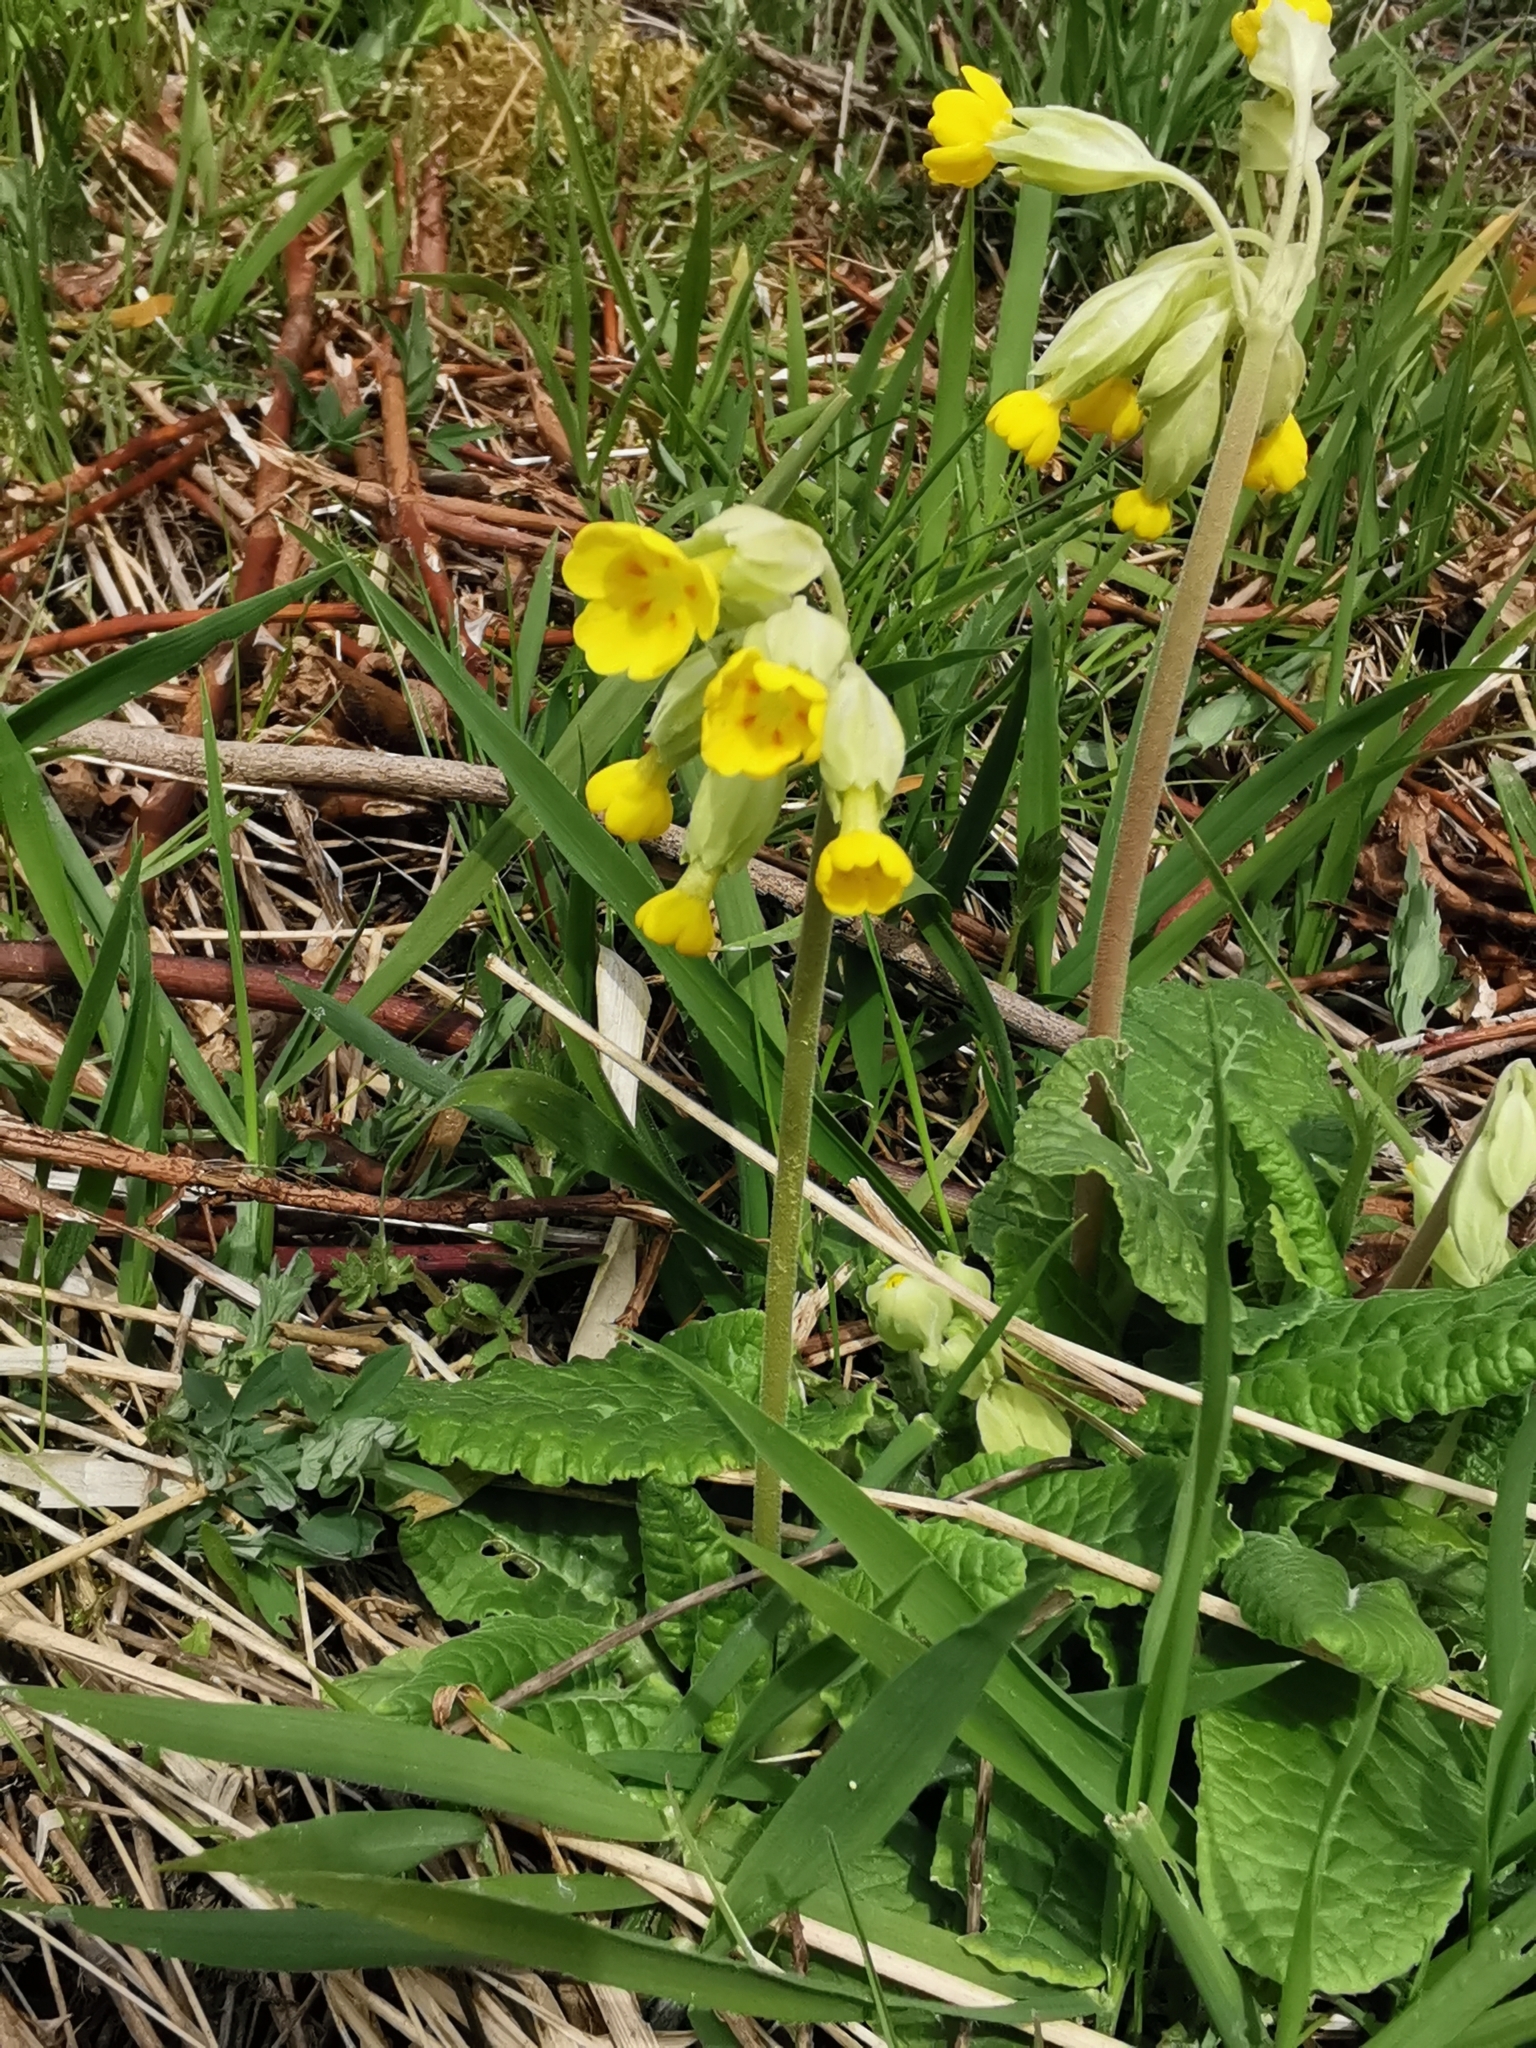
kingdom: Plantae
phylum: Tracheophyta
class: Magnoliopsida
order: Ericales
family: Primulaceae
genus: Primula
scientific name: Primula veris
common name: Cowslip
